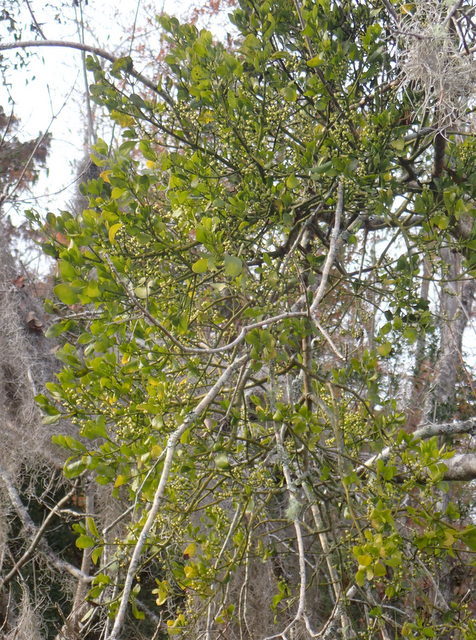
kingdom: Plantae
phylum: Tracheophyta
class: Magnoliopsida
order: Santalales
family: Viscaceae
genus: Phoradendron
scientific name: Phoradendron leucarpum
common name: Pacific mistletoe
